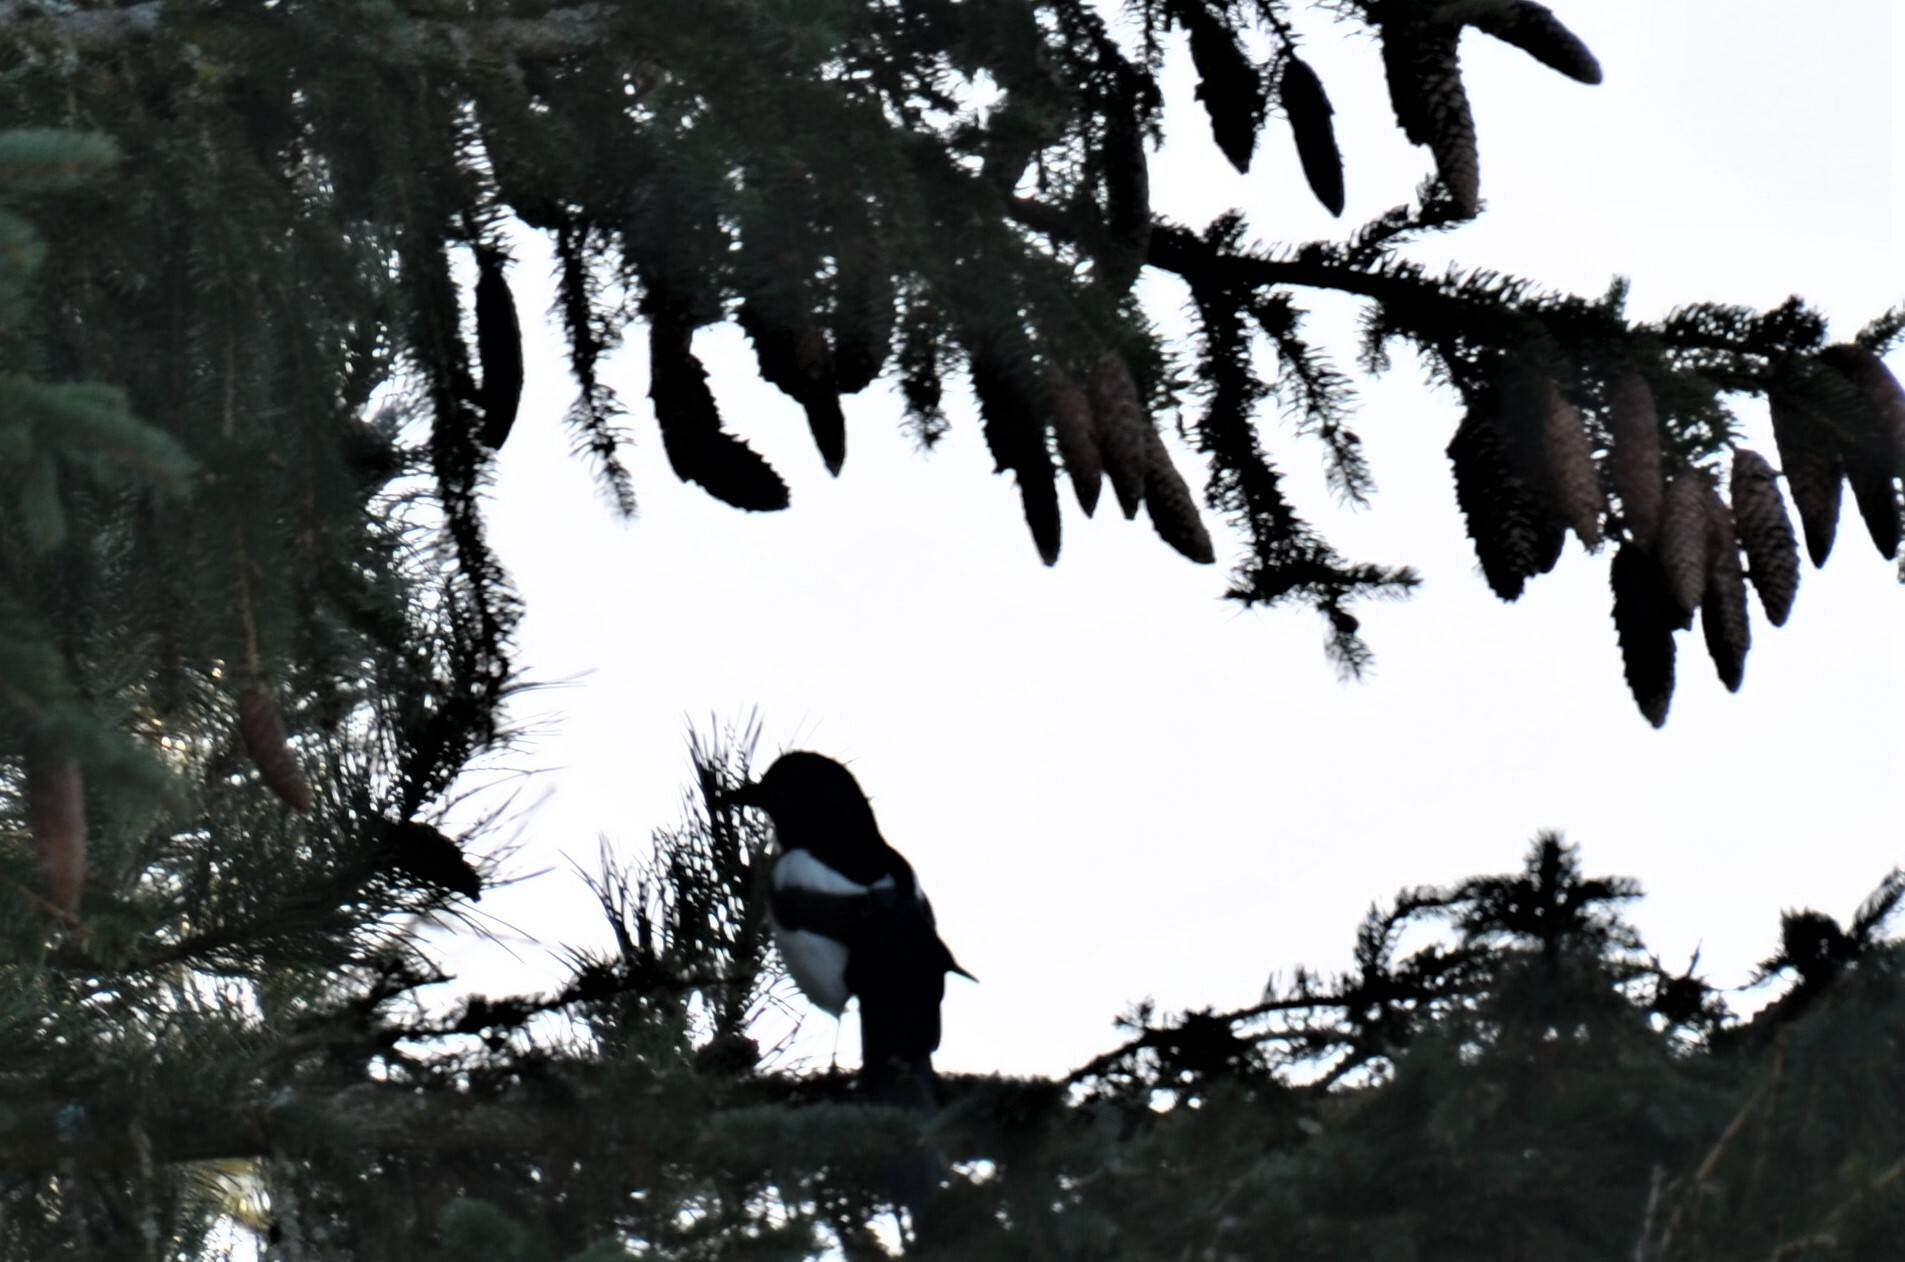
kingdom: Animalia
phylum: Chordata
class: Aves
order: Passeriformes
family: Corvidae
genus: Pica
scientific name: Pica pica
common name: Eurasian magpie
